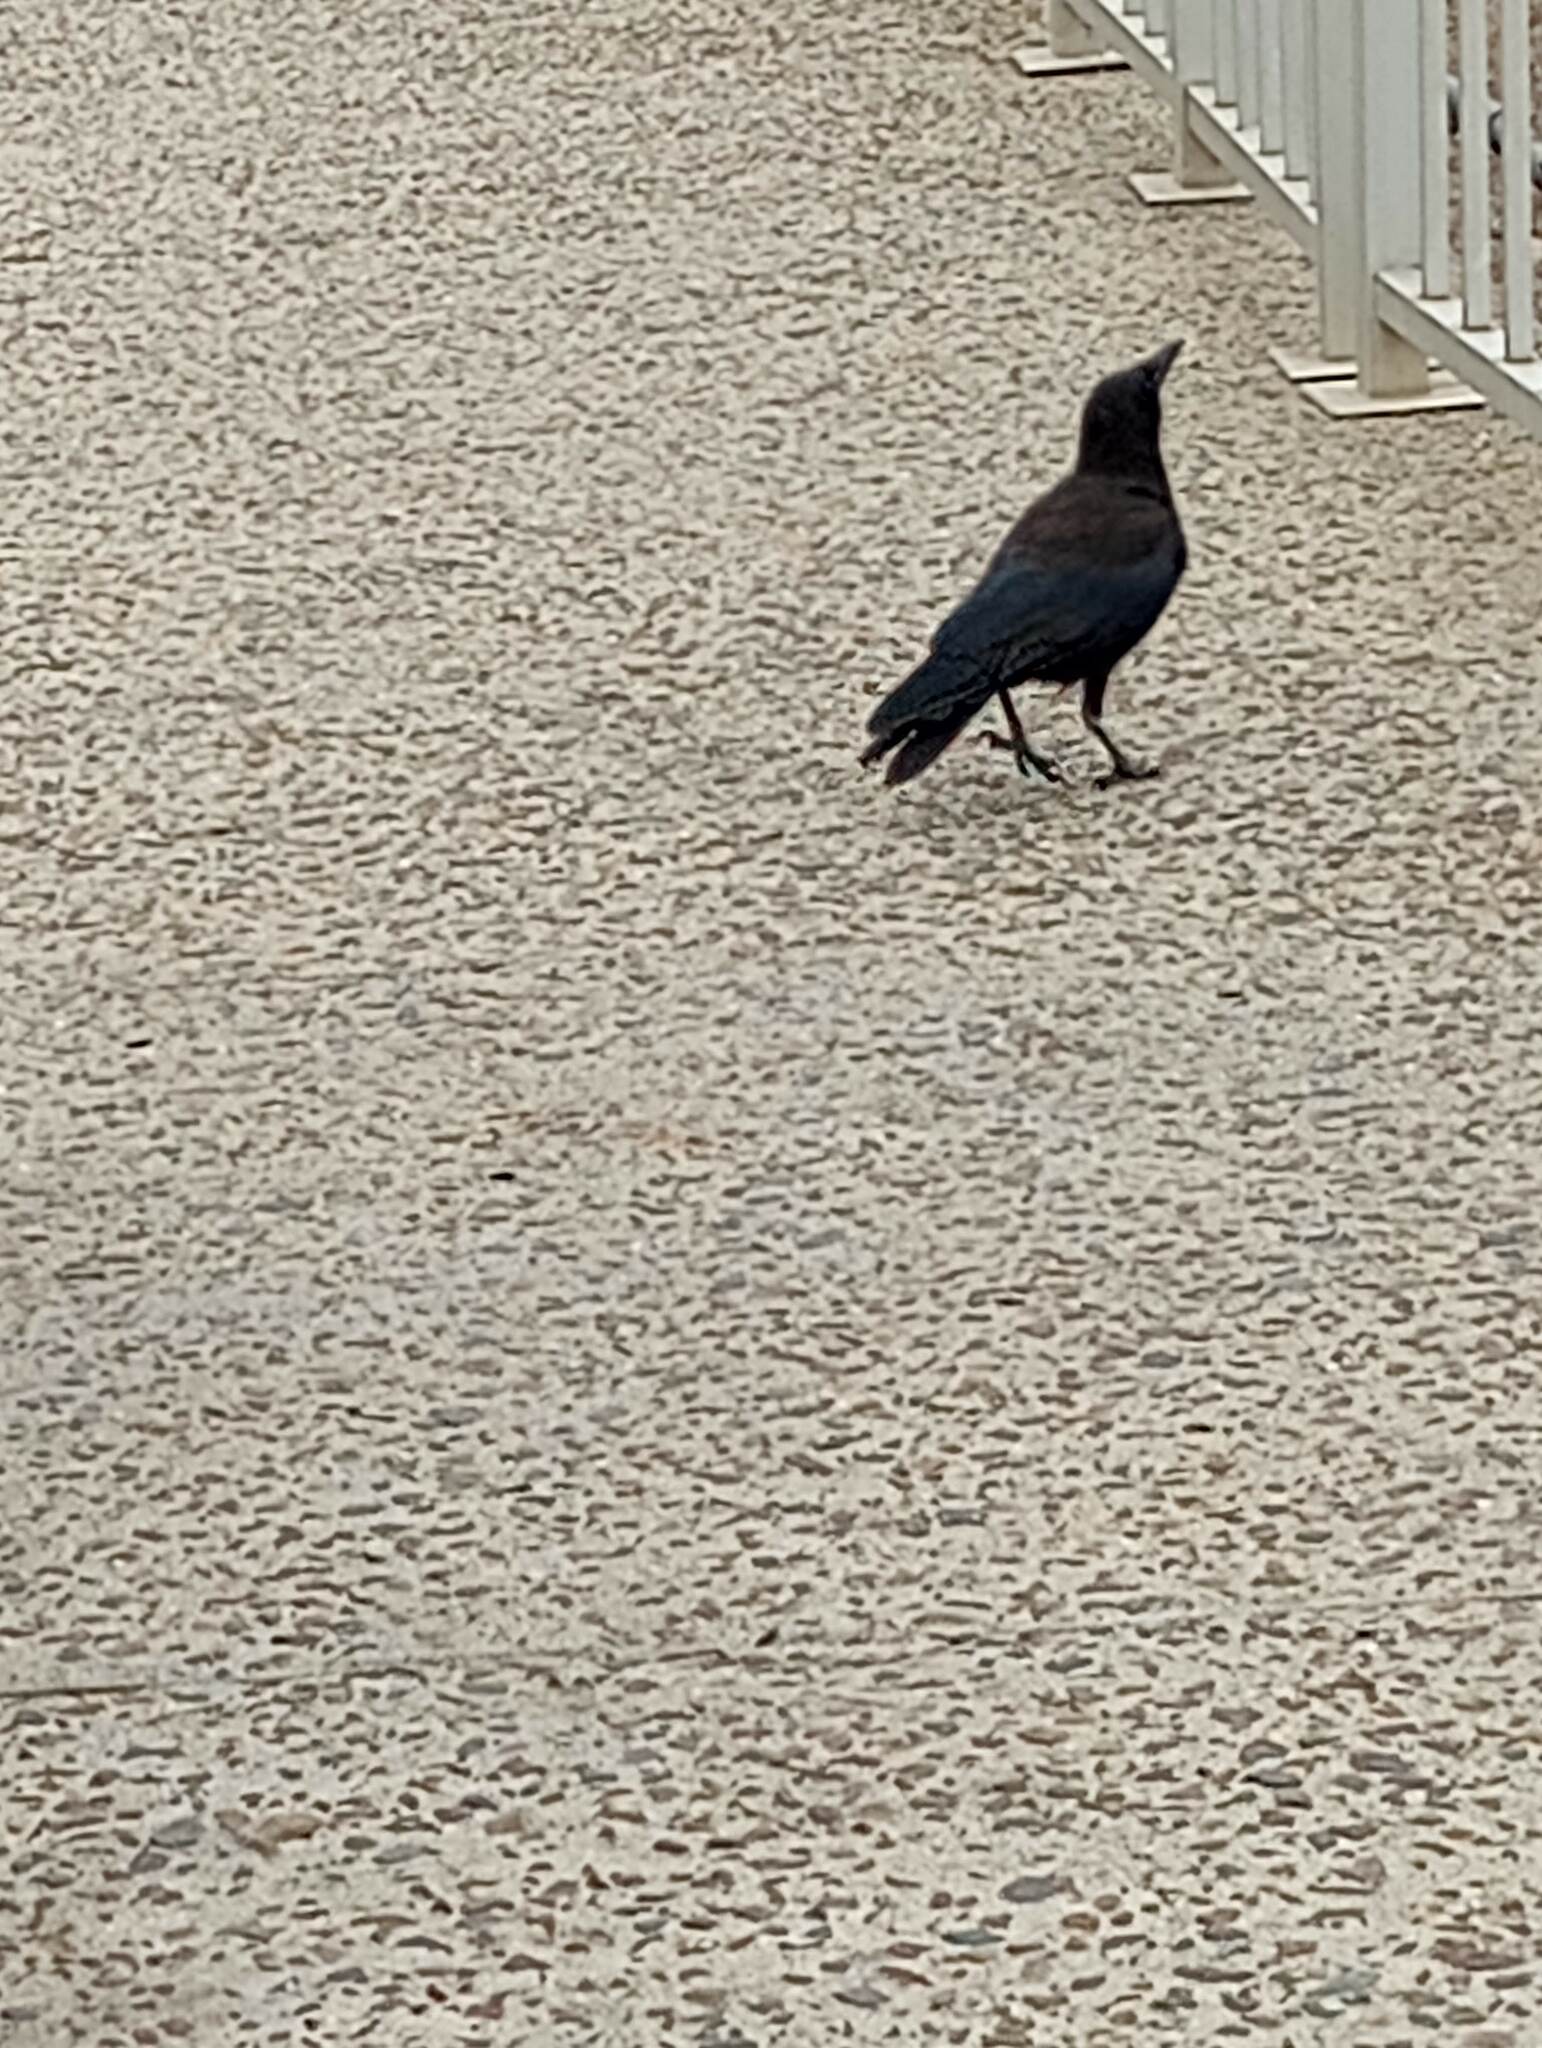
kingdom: Animalia
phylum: Chordata
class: Aves
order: Passeriformes
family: Corvidae
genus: Corvus
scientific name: Corvus brachyrhynchos
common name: American crow
